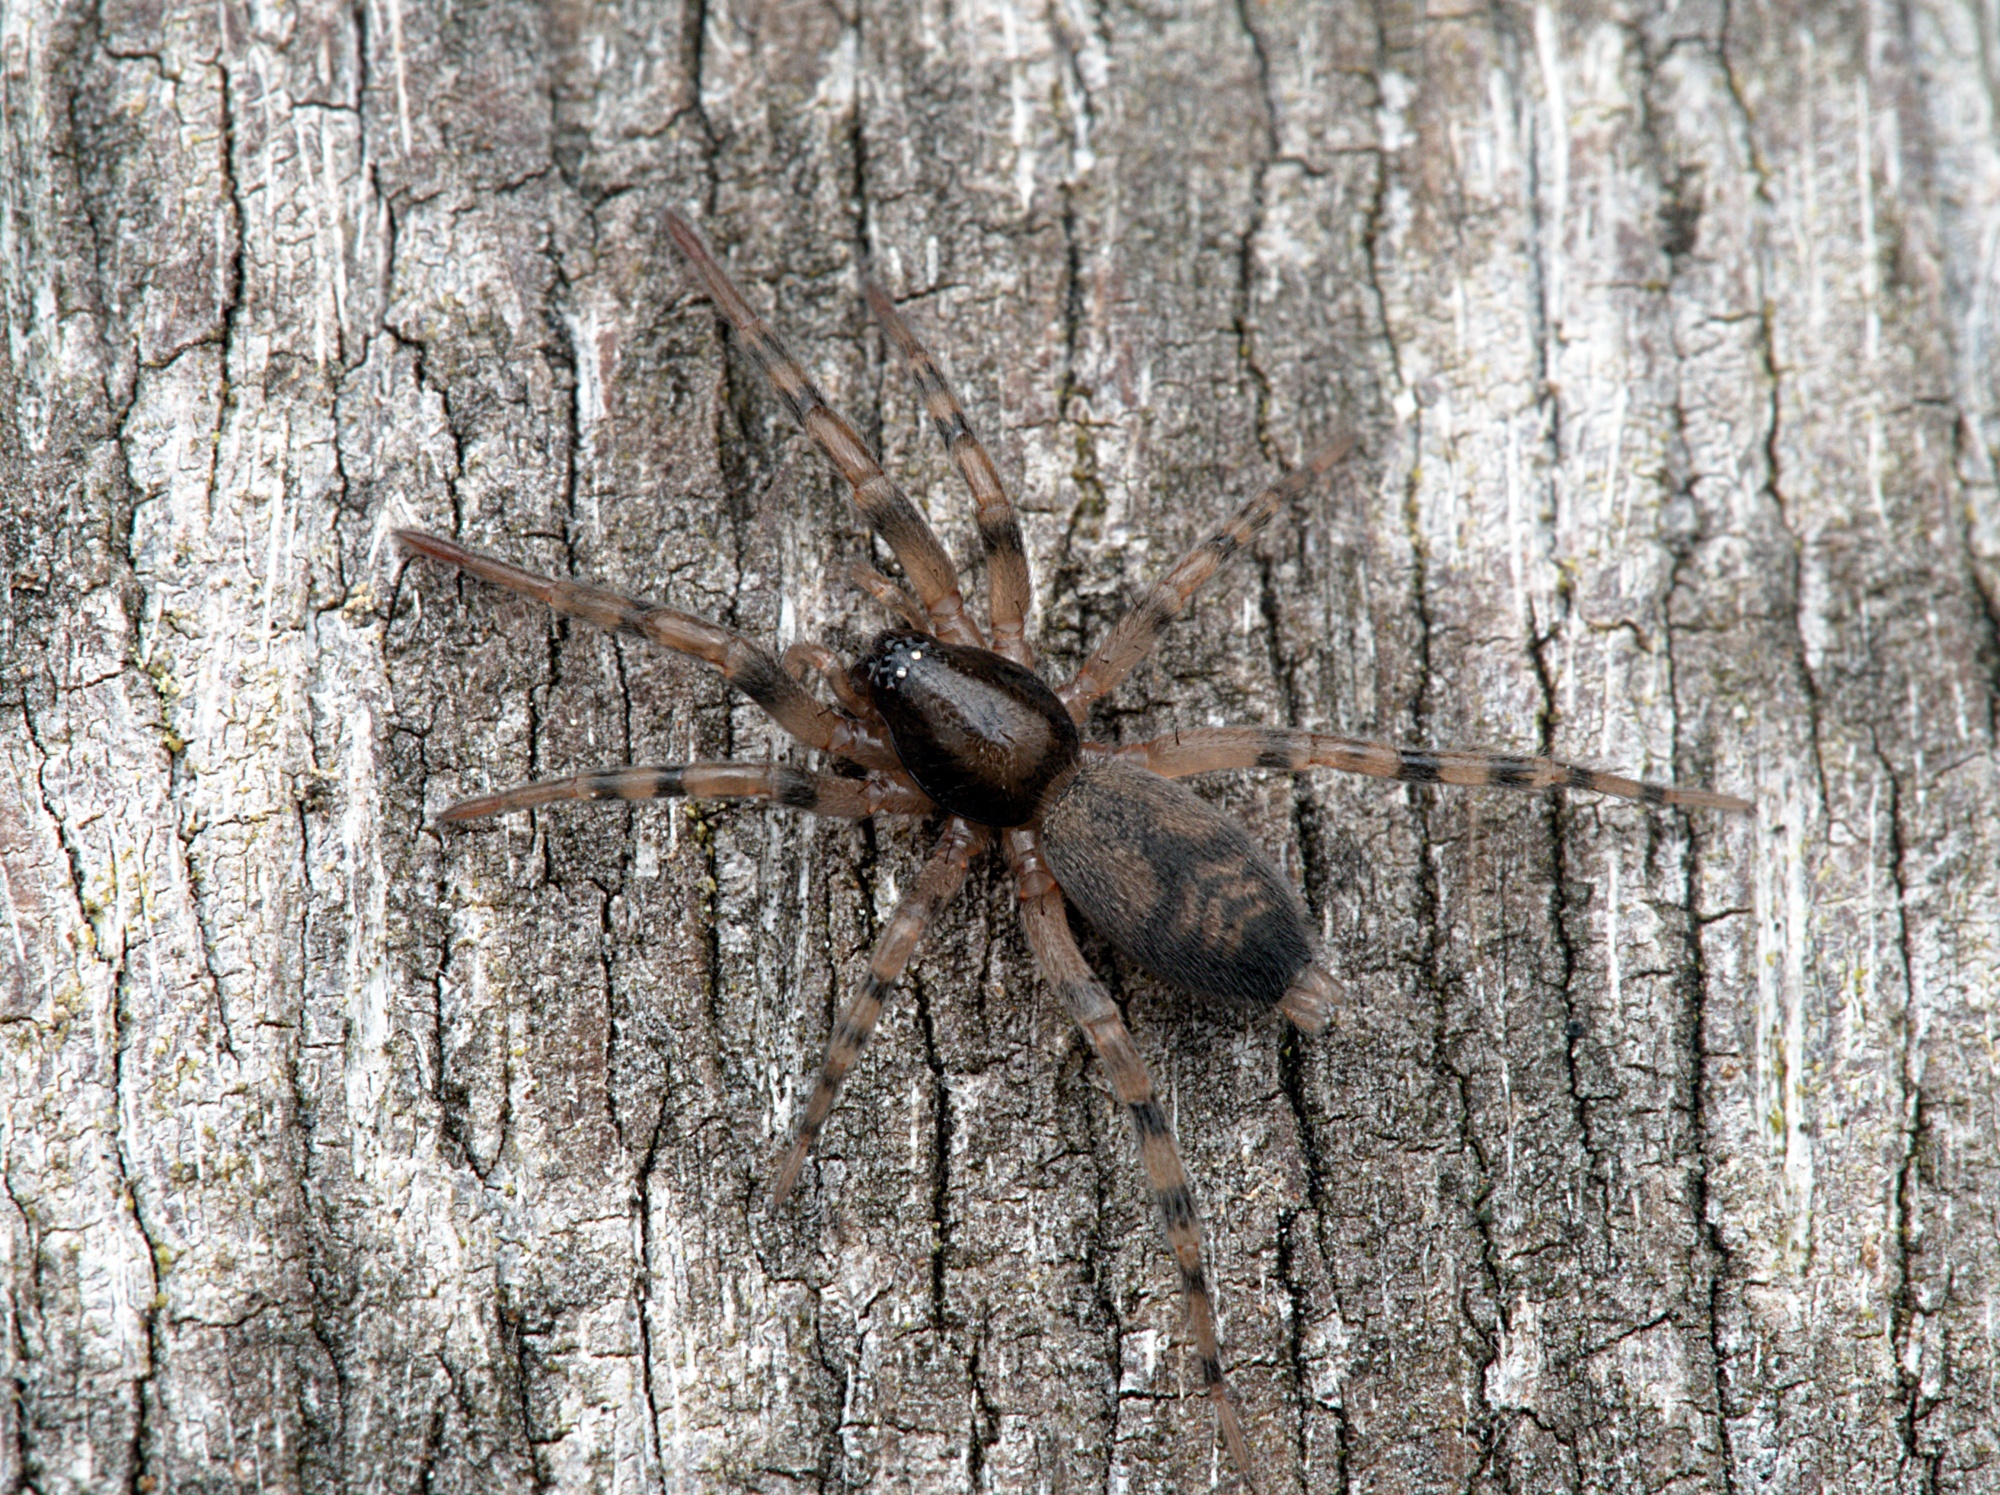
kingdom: Animalia
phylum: Arthropoda
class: Arachnida
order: Araneae
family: Gnaphosidae
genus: Intruda
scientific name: Intruda signata
